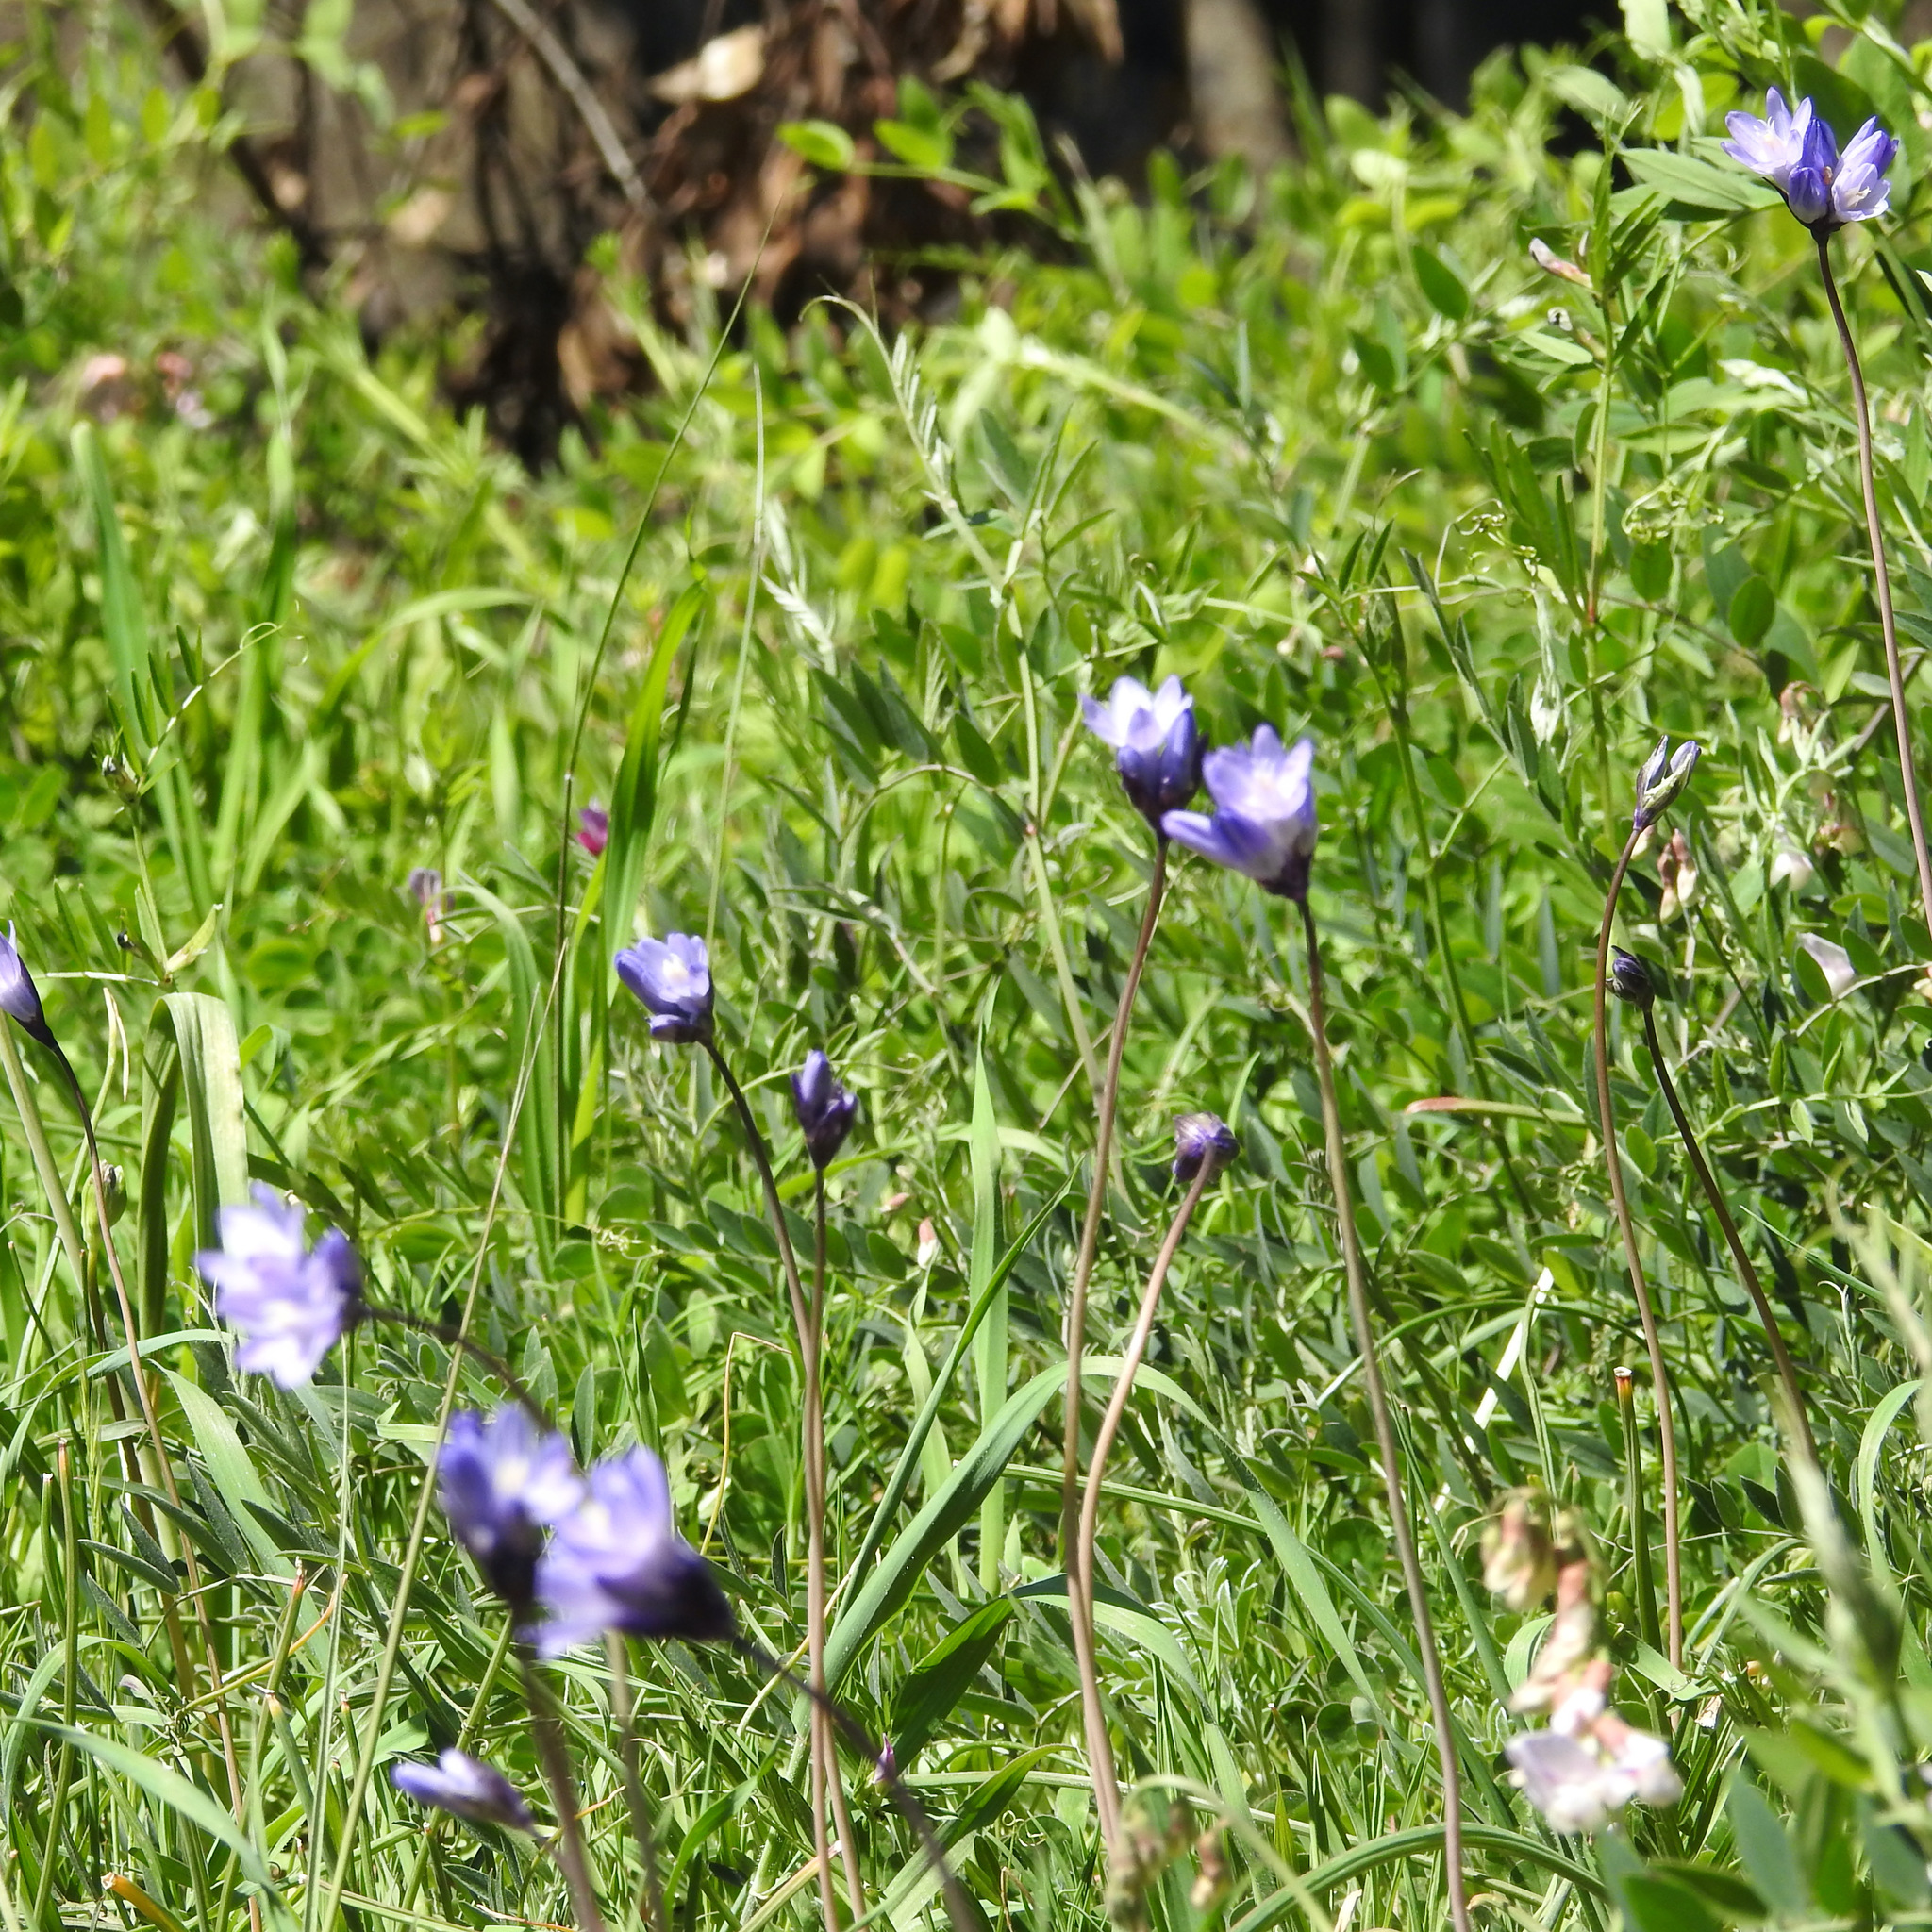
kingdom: Plantae
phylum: Tracheophyta
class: Liliopsida
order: Asparagales
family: Asparagaceae
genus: Dipterostemon
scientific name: Dipterostemon capitatus
